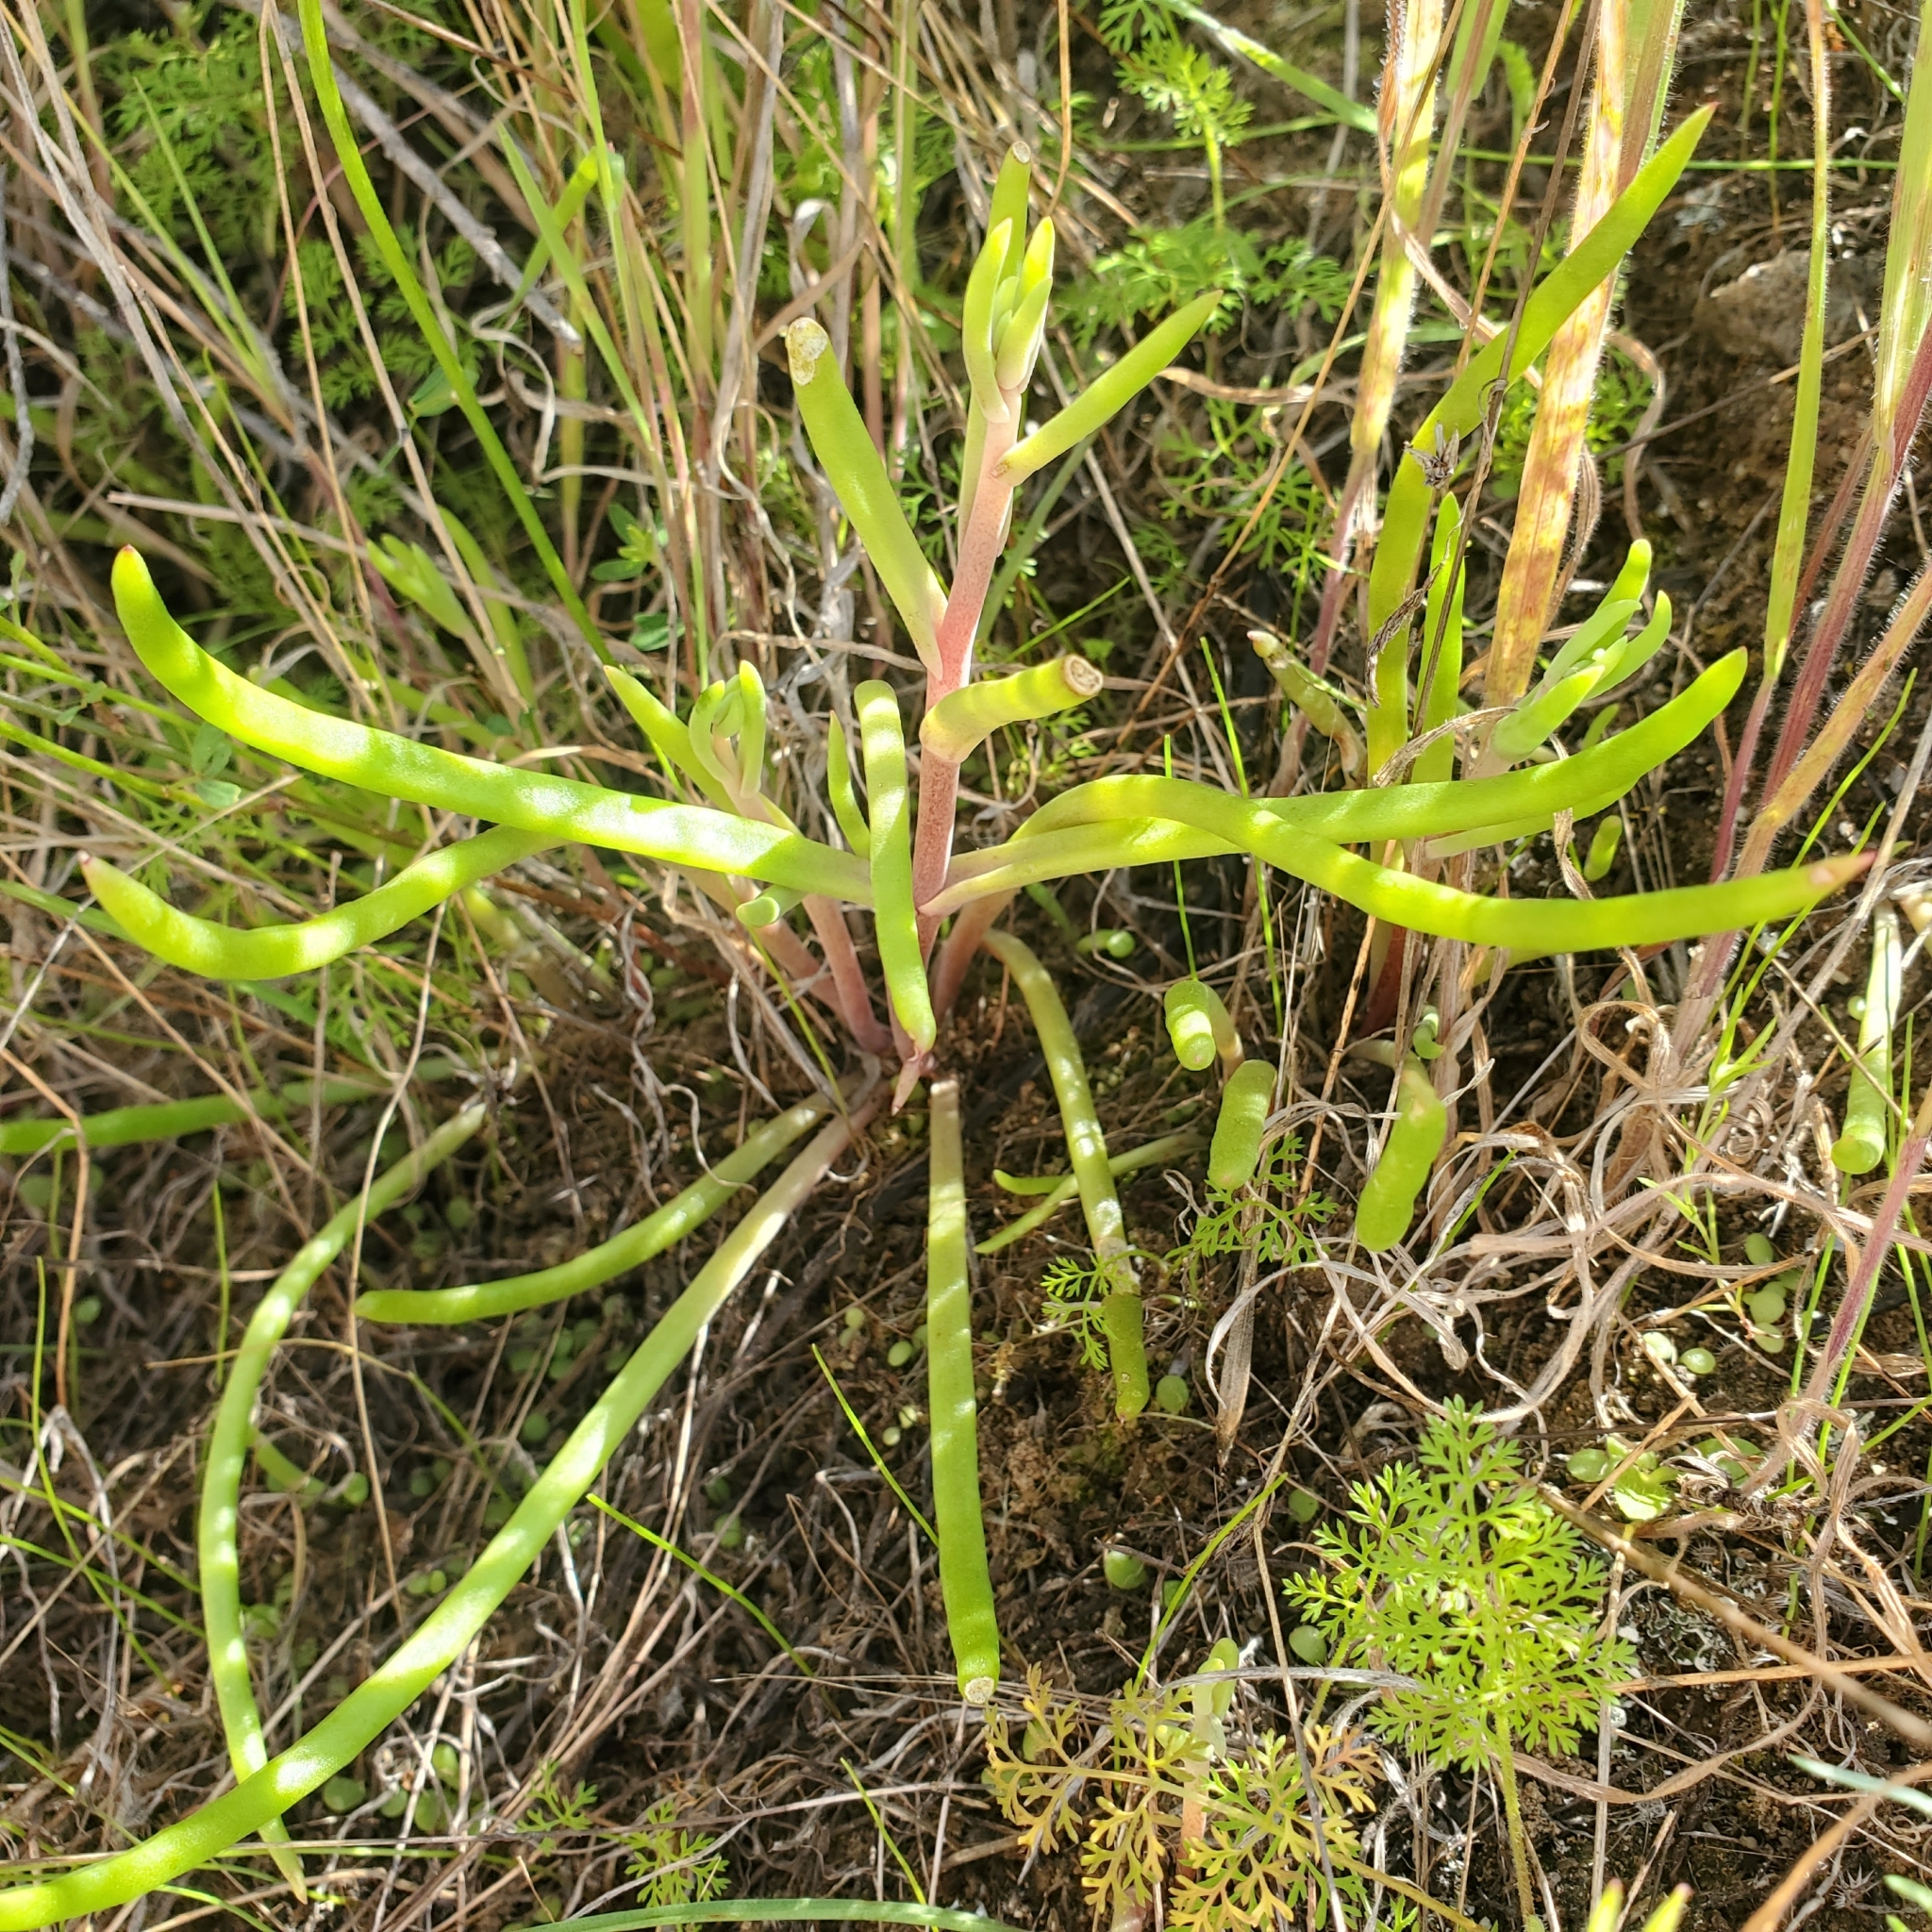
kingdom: Plantae
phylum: Tracheophyta
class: Magnoliopsida
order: Saxifragales
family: Crassulaceae
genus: Dudleya
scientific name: Dudleya multicaulis
